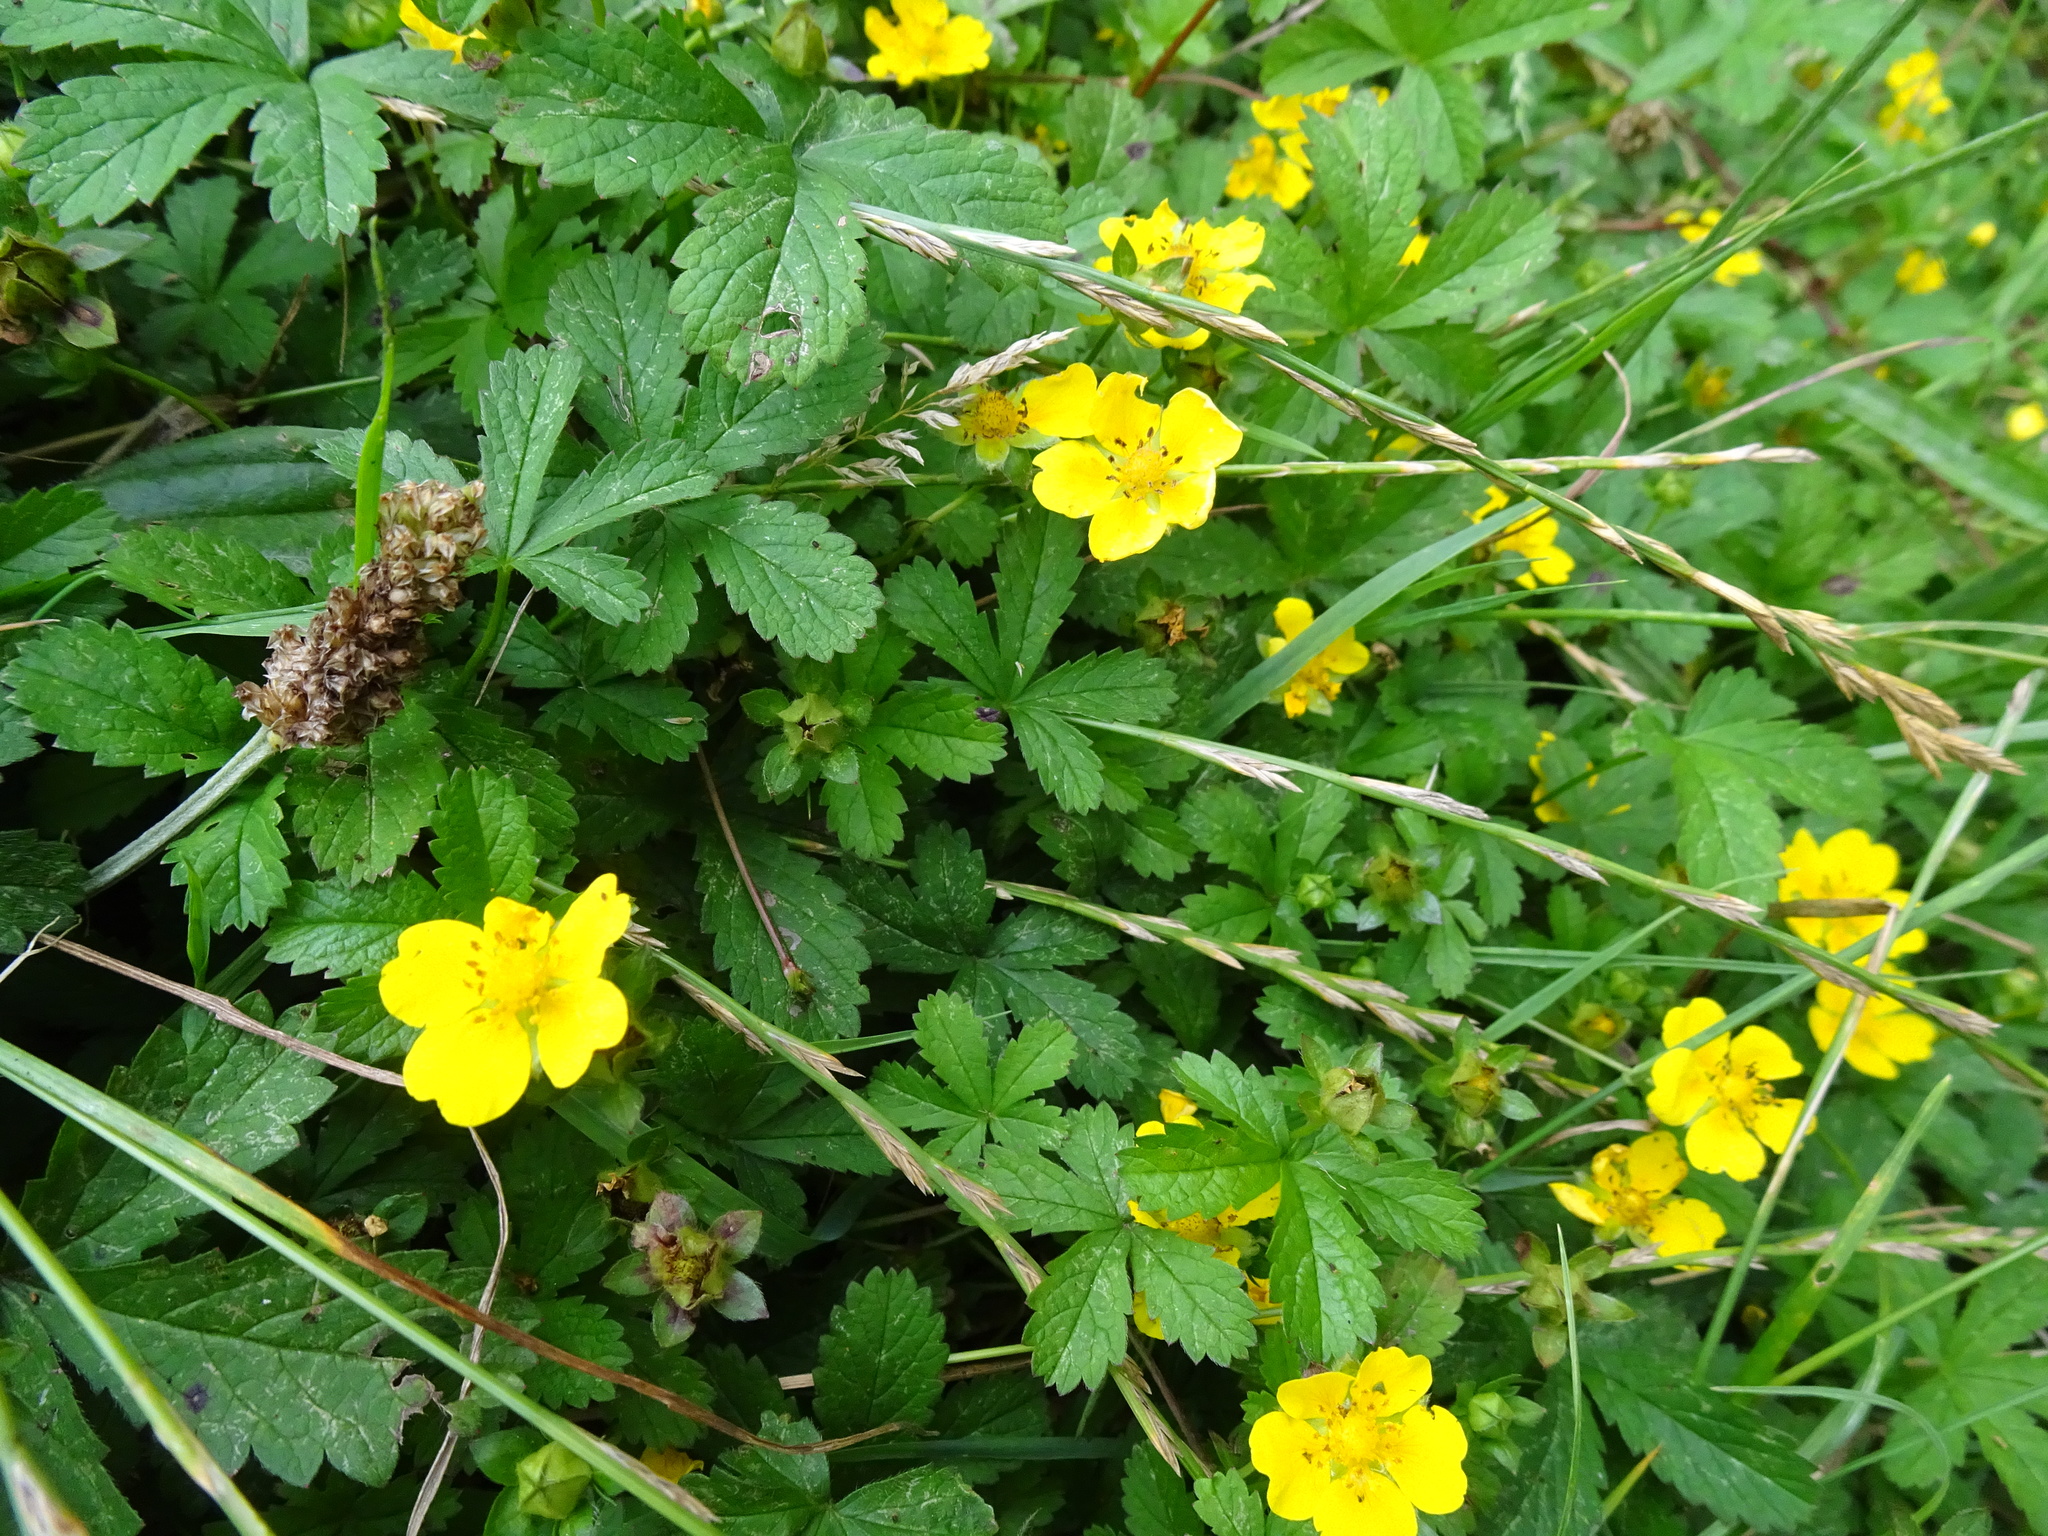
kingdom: Plantae
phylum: Tracheophyta
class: Magnoliopsida
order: Rosales
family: Rosaceae
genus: Potentilla
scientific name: Potentilla reptans
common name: Creeping cinquefoil
